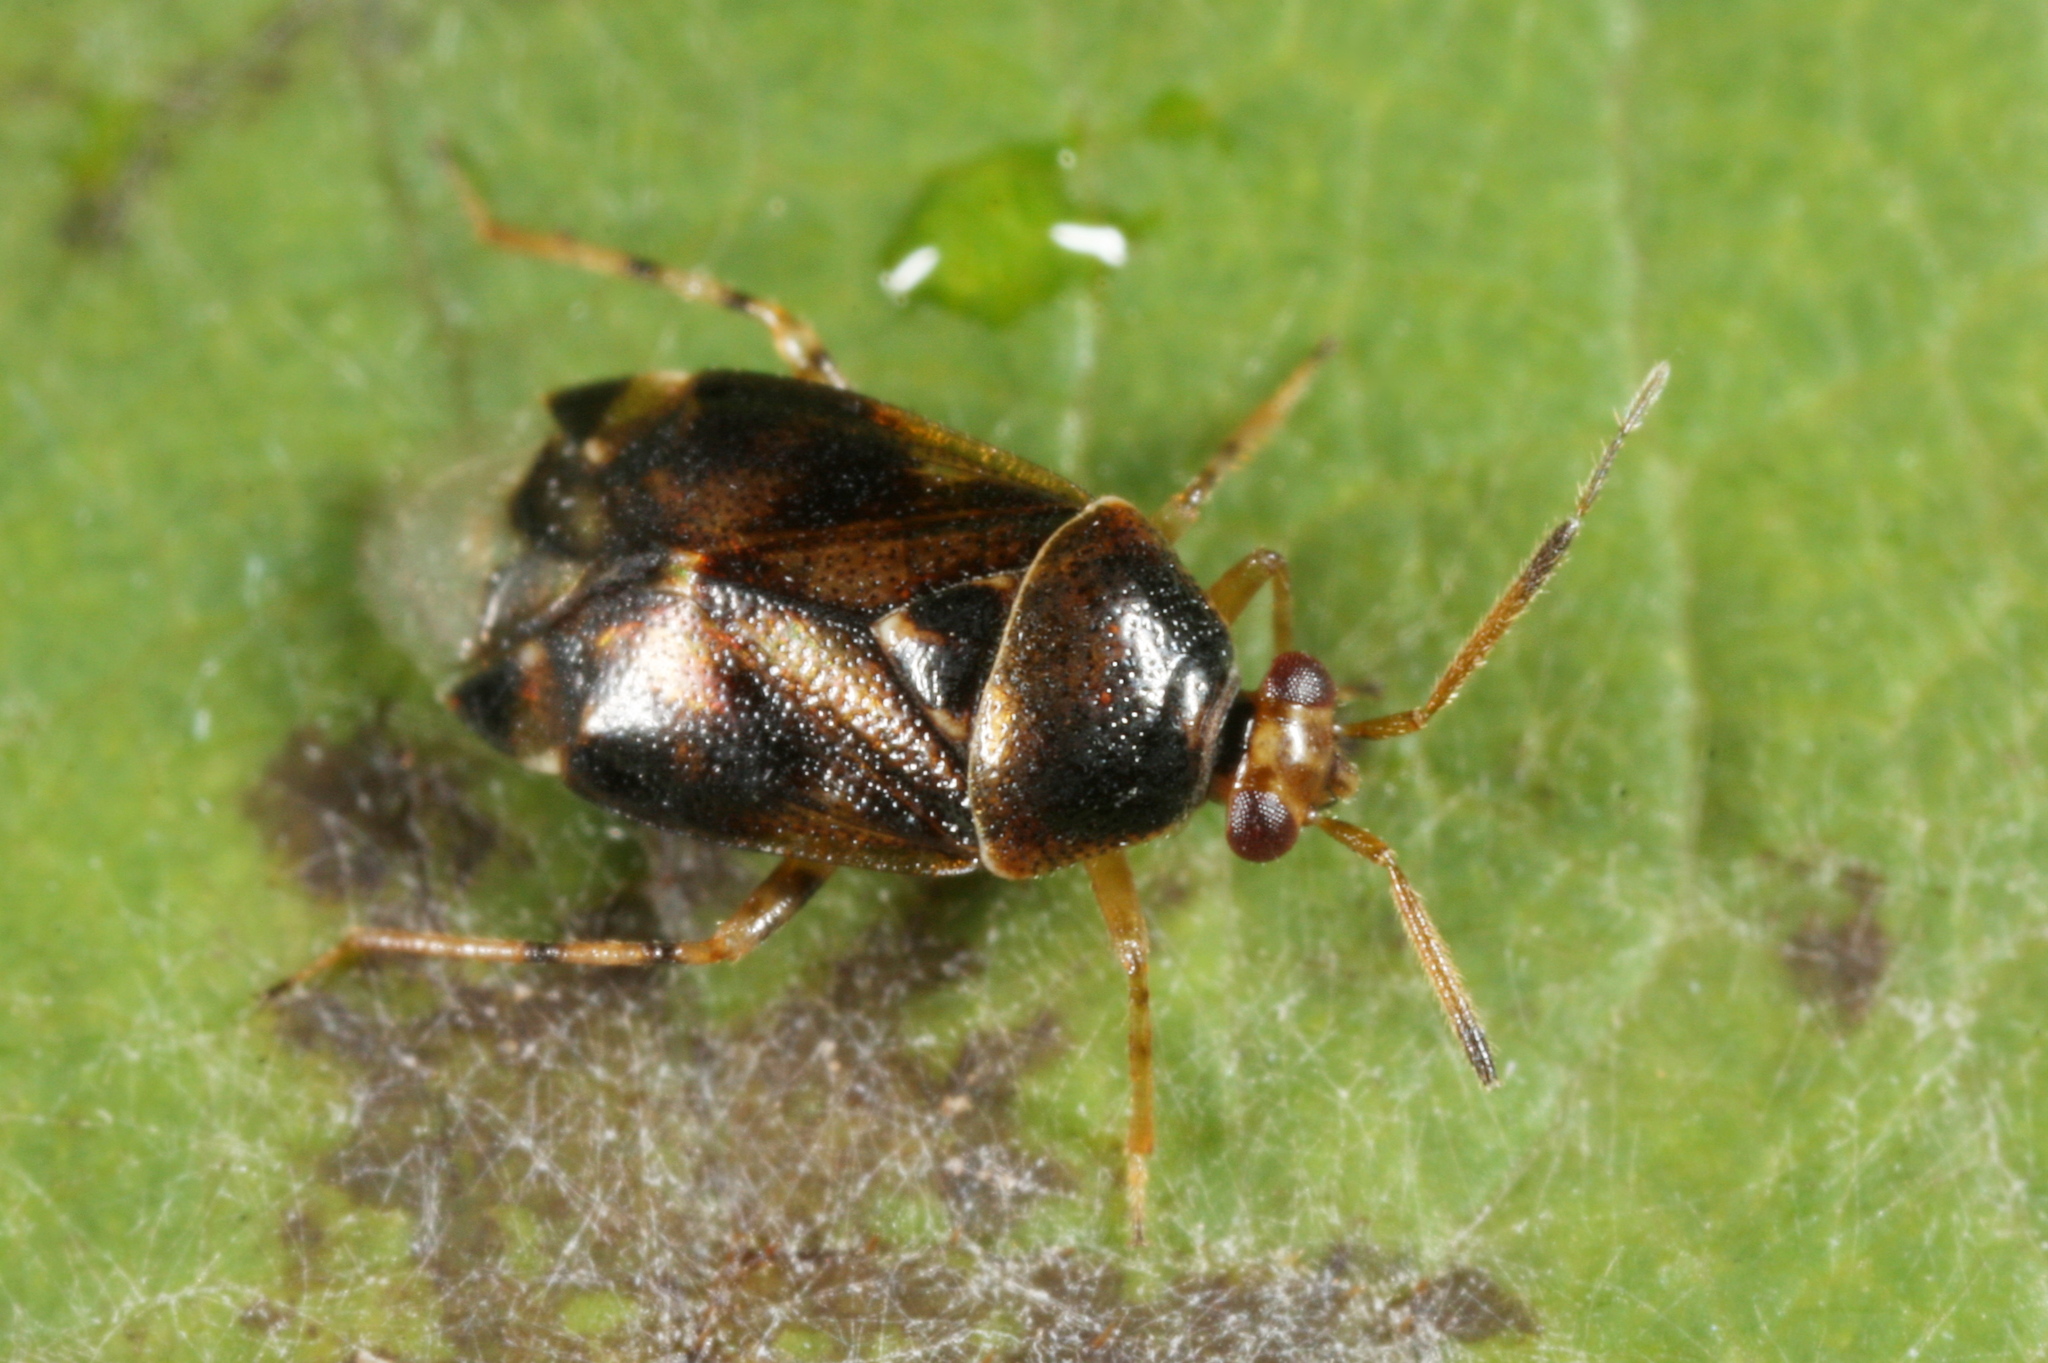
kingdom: Animalia
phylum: Arthropoda
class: Insecta
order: Hemiptera
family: Miridae
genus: Deraeocoris
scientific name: Deraeocoris lutescens
